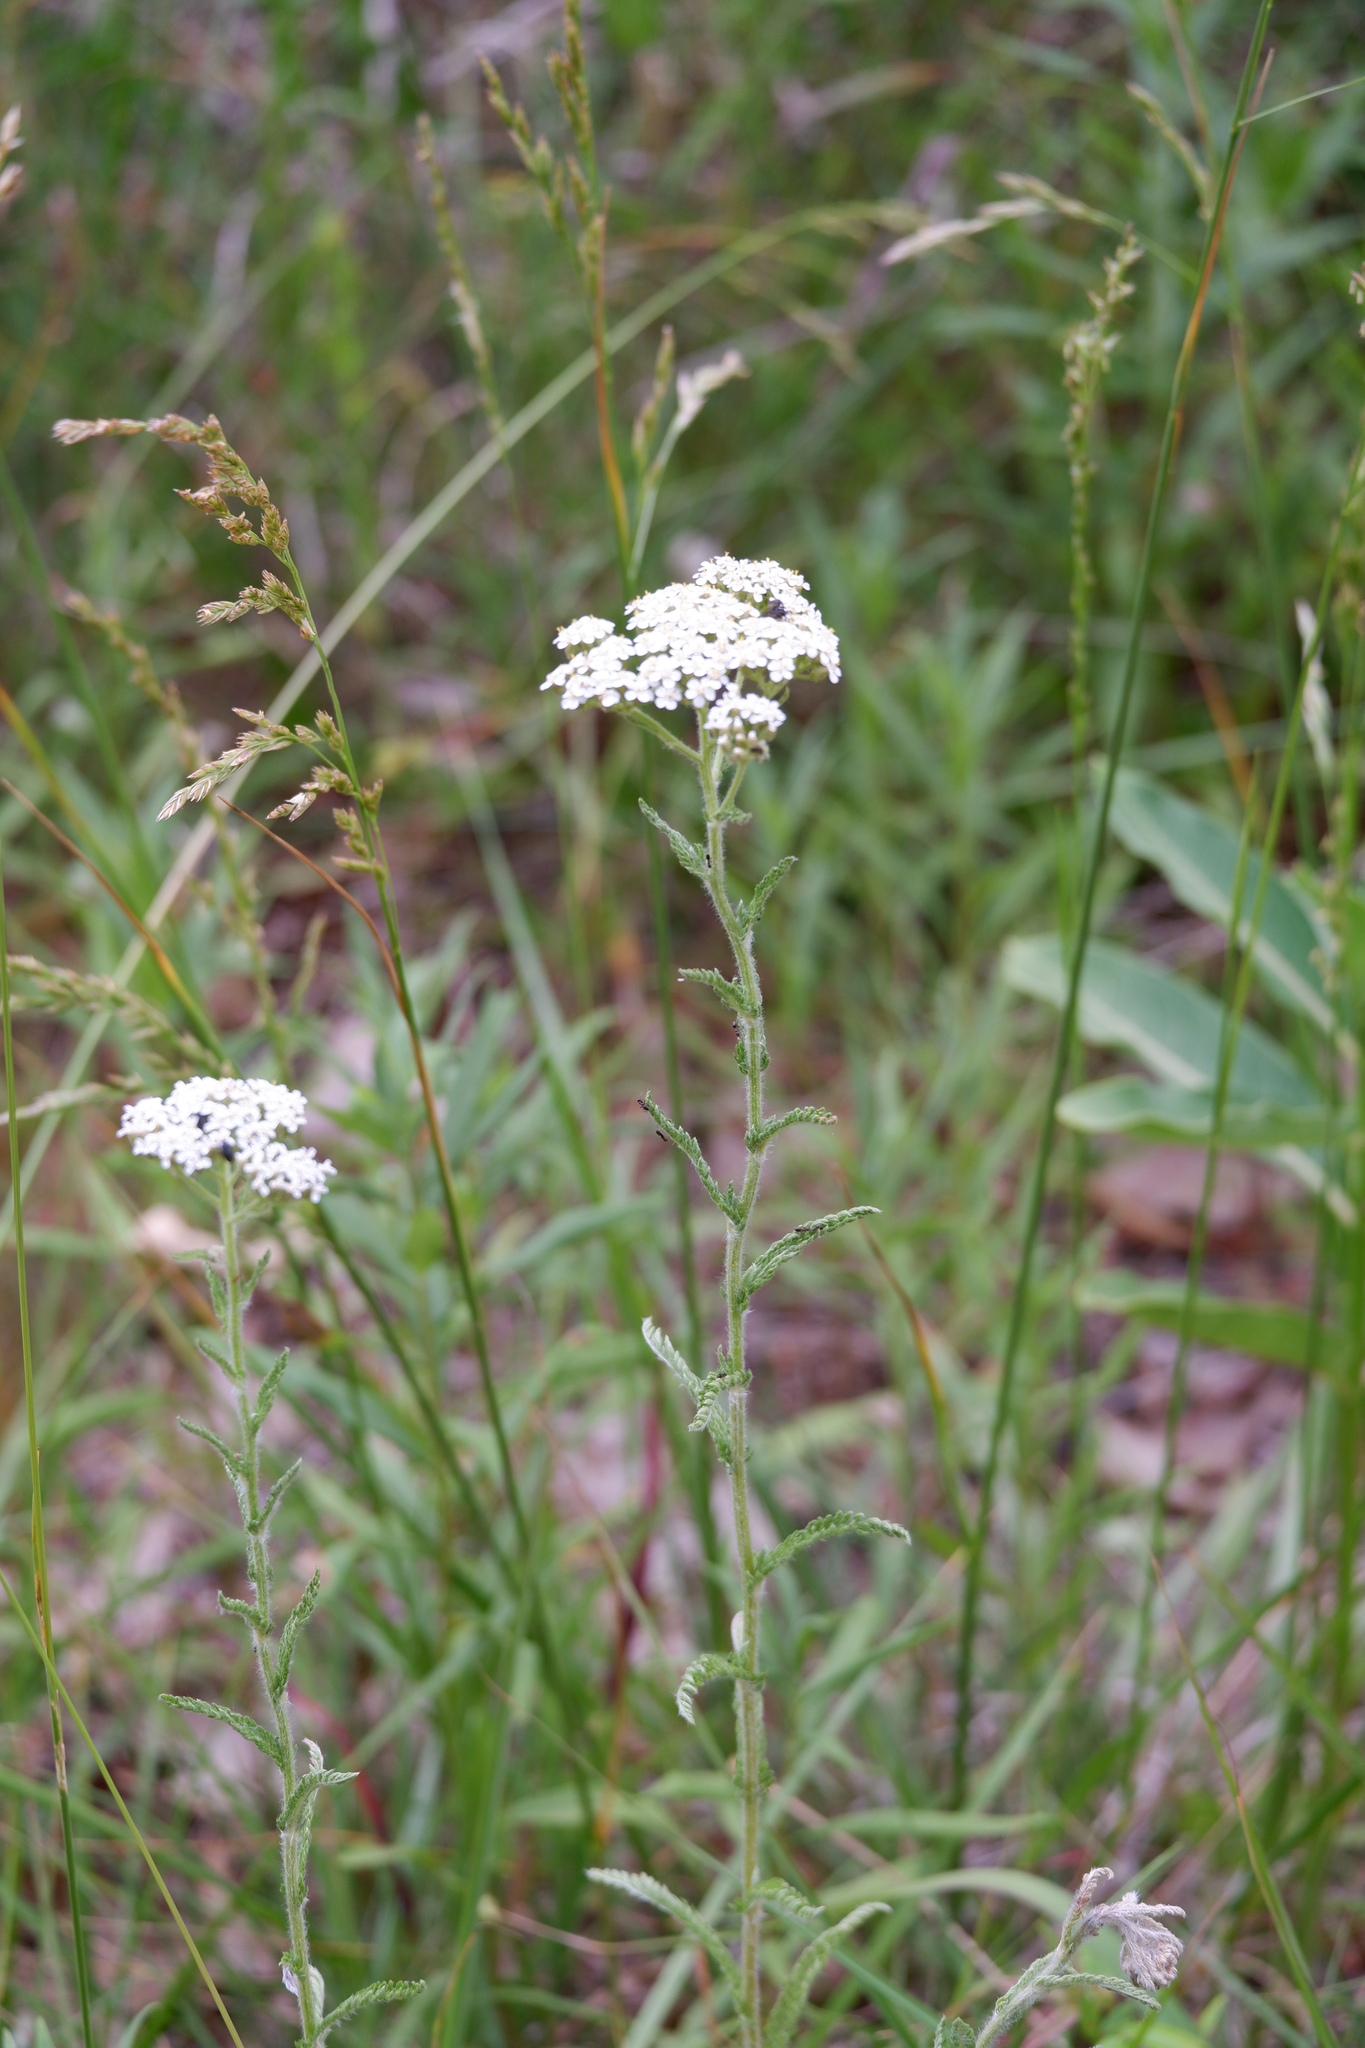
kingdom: Plantae
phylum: Tracheophyta
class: Magnoliopsida
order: Asterales
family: Asteraceae
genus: Achillea
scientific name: Achillea millefolium
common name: Yarrow
